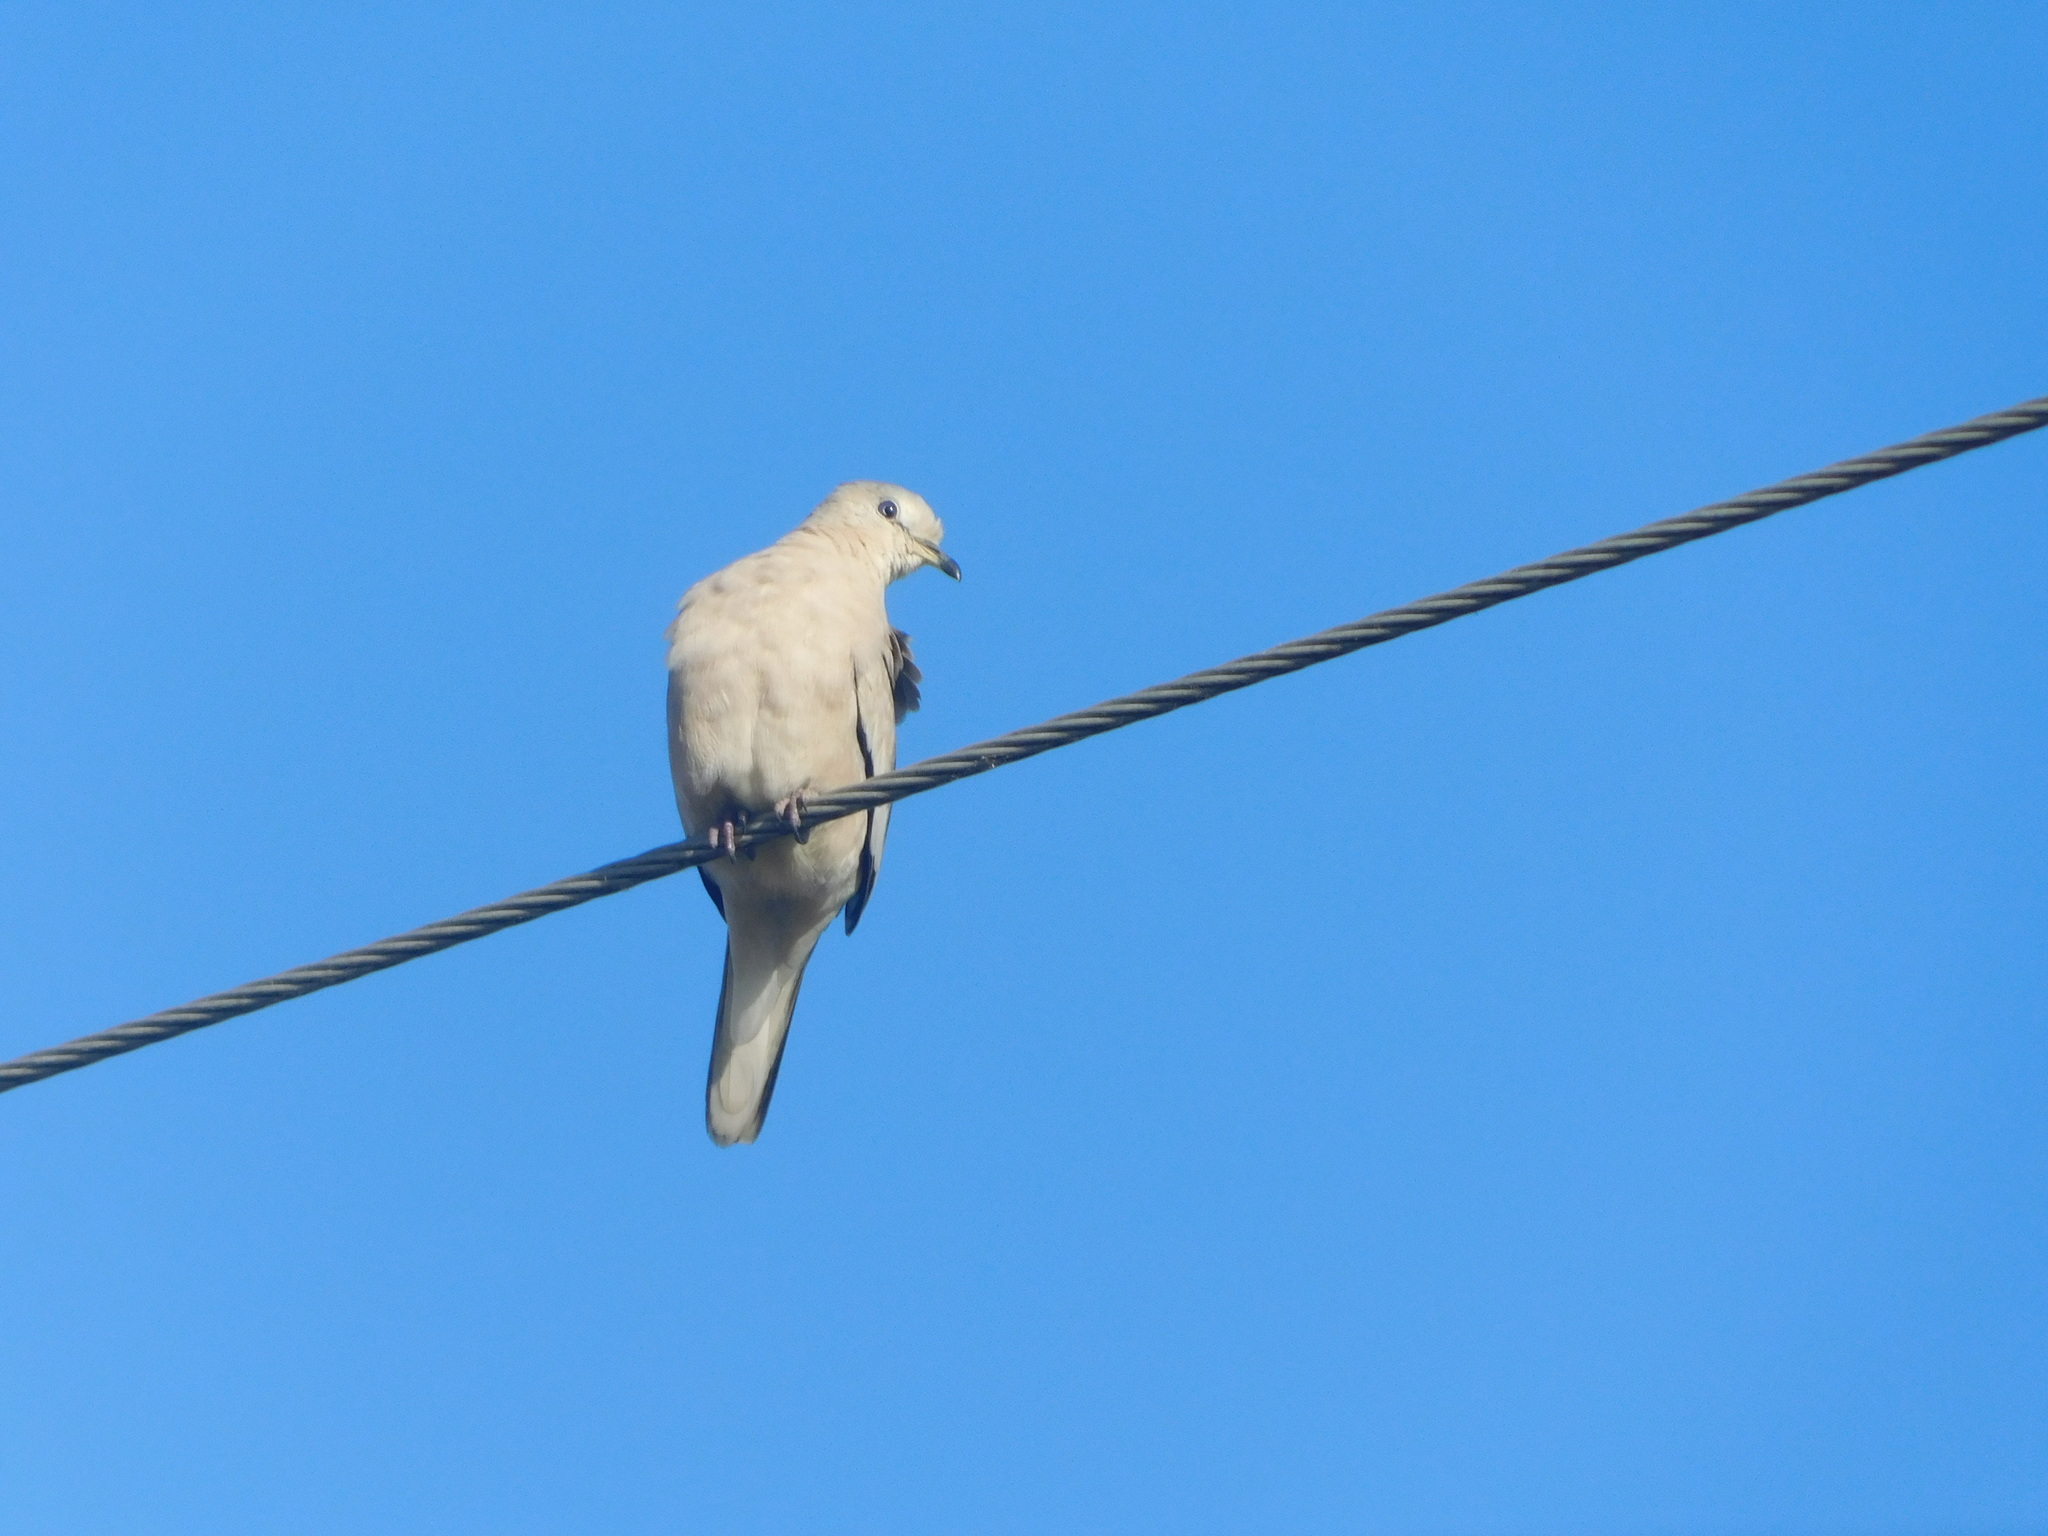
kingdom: Animalia
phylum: Chordata
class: Aves
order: Columbiformes
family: Columbidae
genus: Columbina
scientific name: Columbina picui
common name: Picui ground dove
